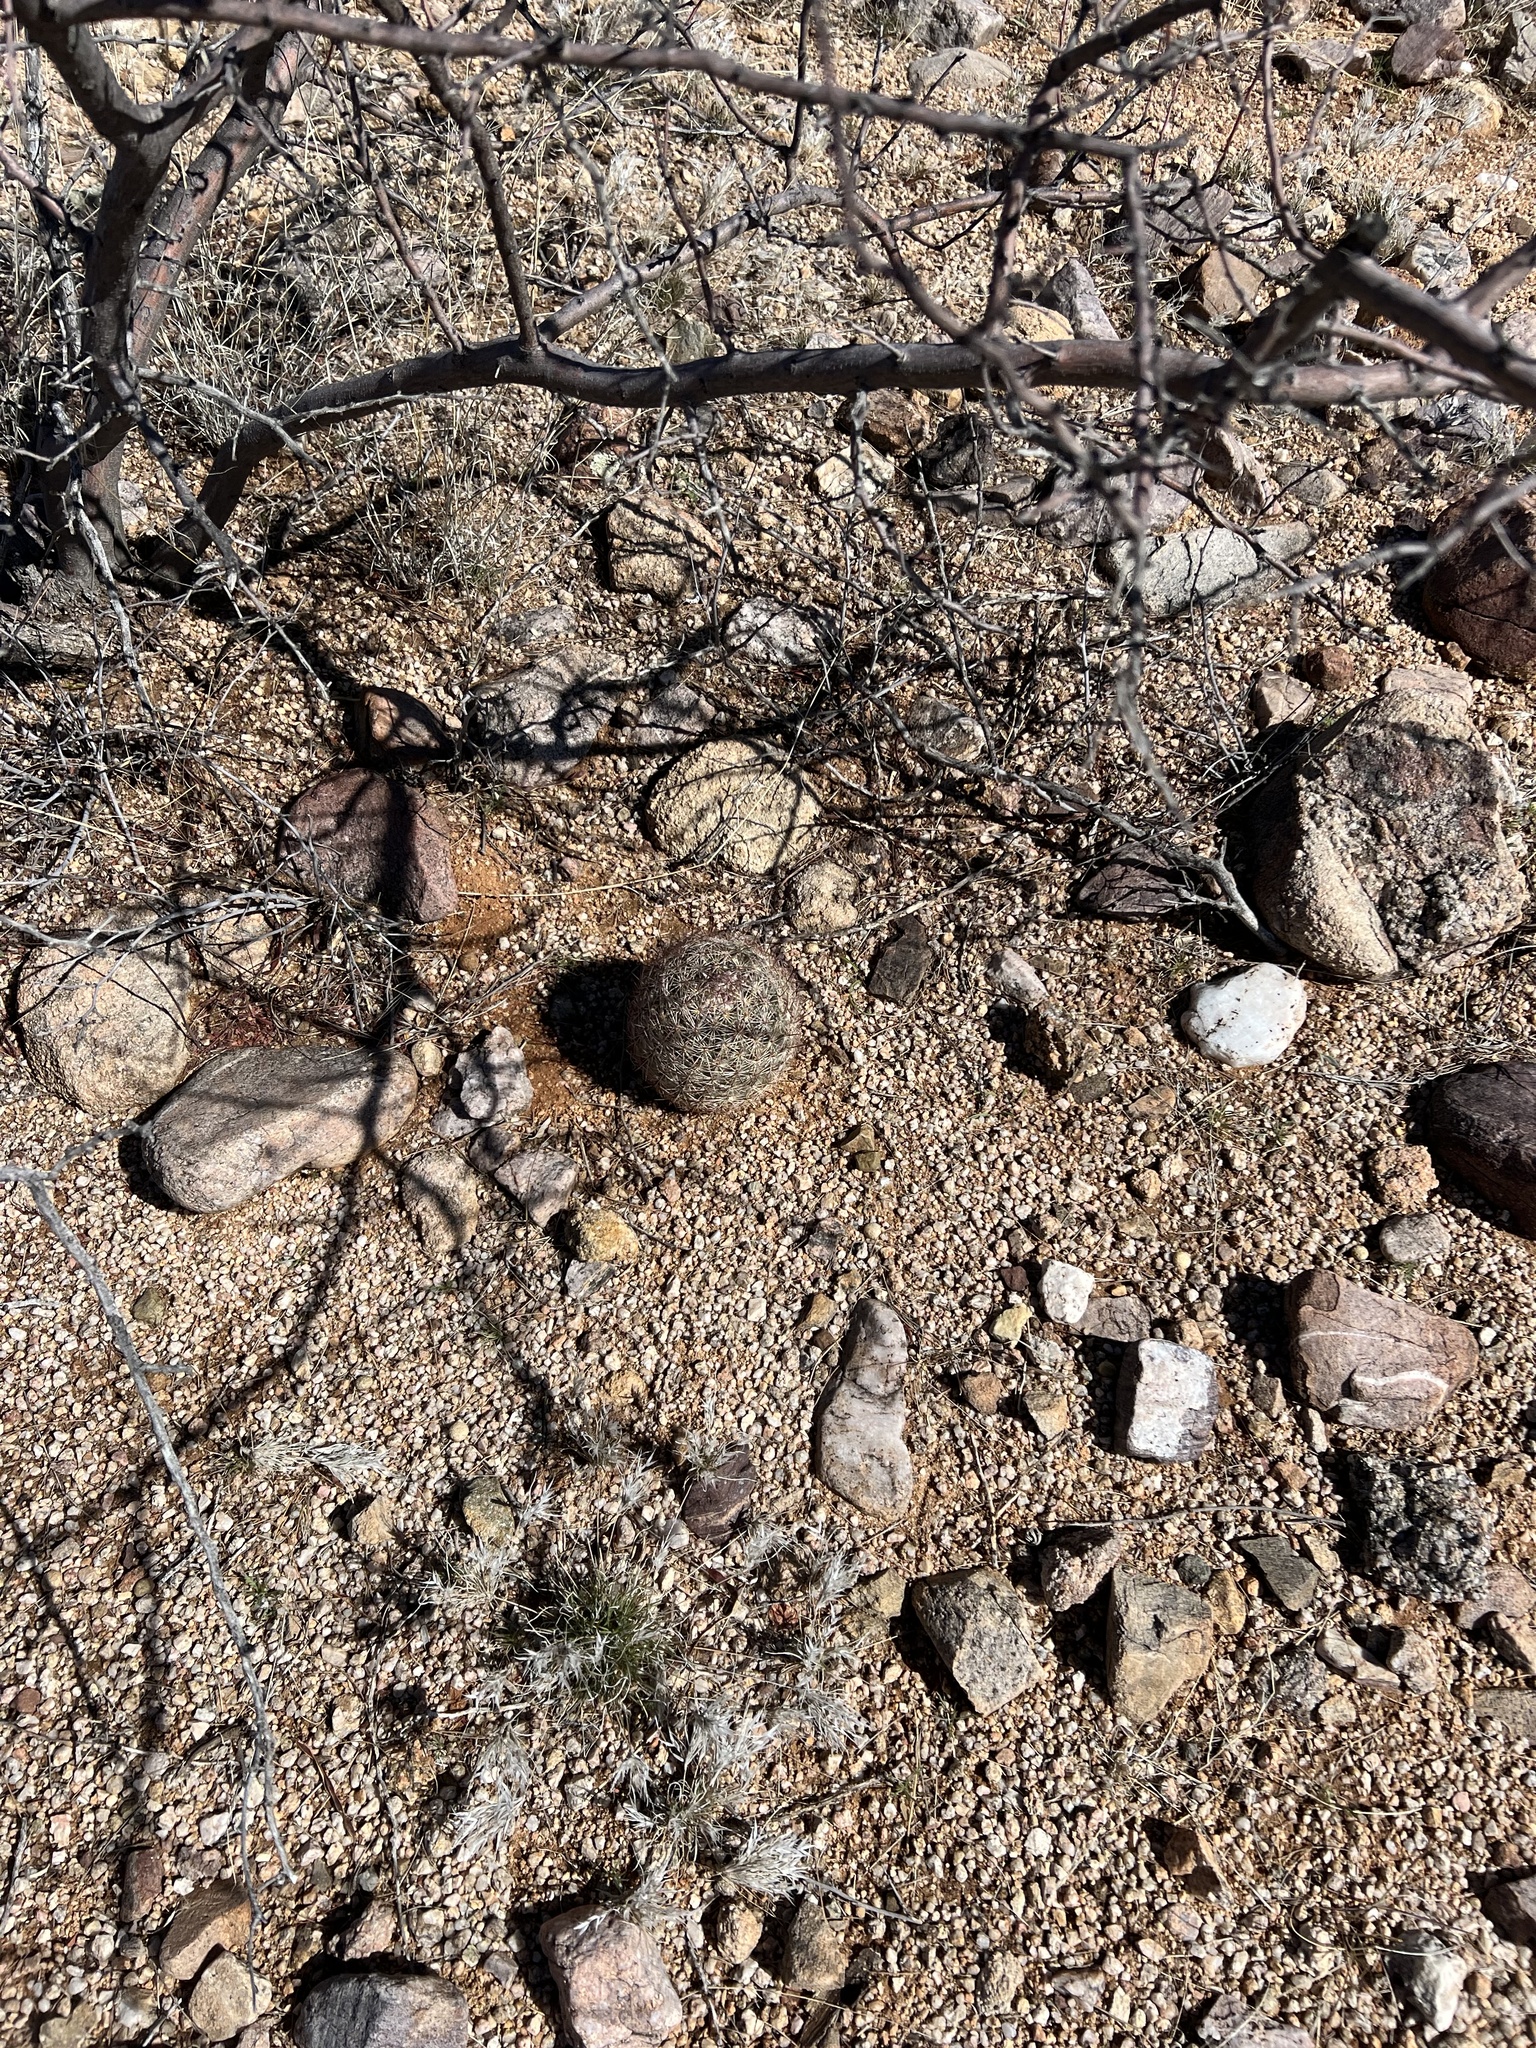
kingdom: Plantae
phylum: Tracheophyta
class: Magnoliopsida
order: Caryophyllales
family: Cactaceae
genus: Sclerocactus
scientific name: Sclerocactus johnsonii
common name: Eight-spine fishhook cactus
